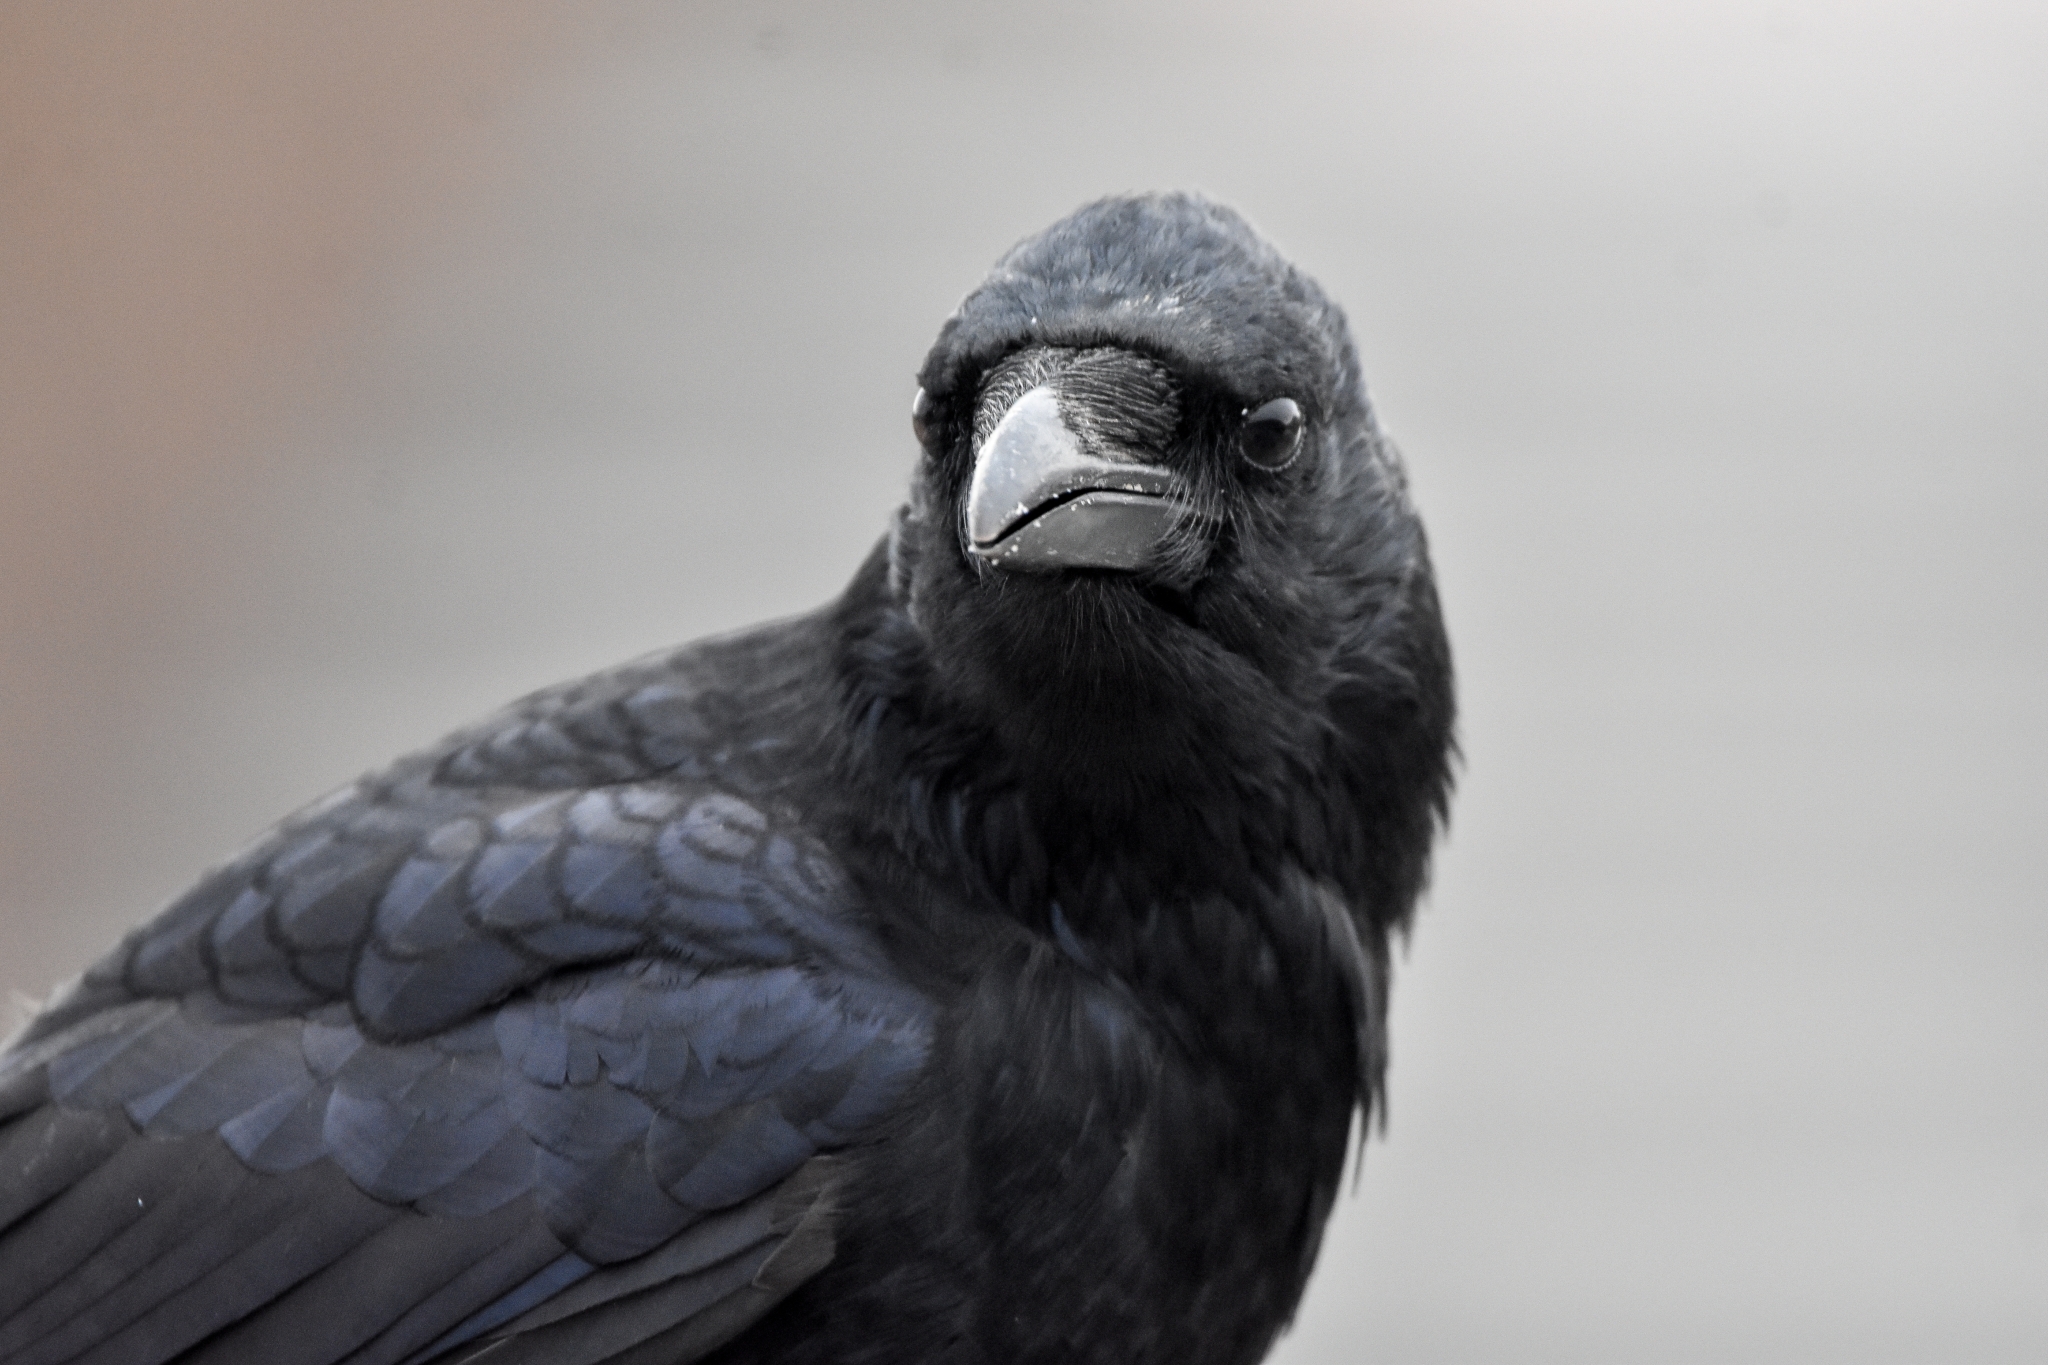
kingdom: Animalia
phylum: Chordata
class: Aves
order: Passeriformes
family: Corvidae
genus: Corvus
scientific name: Corvus corone
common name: Carrion crow
